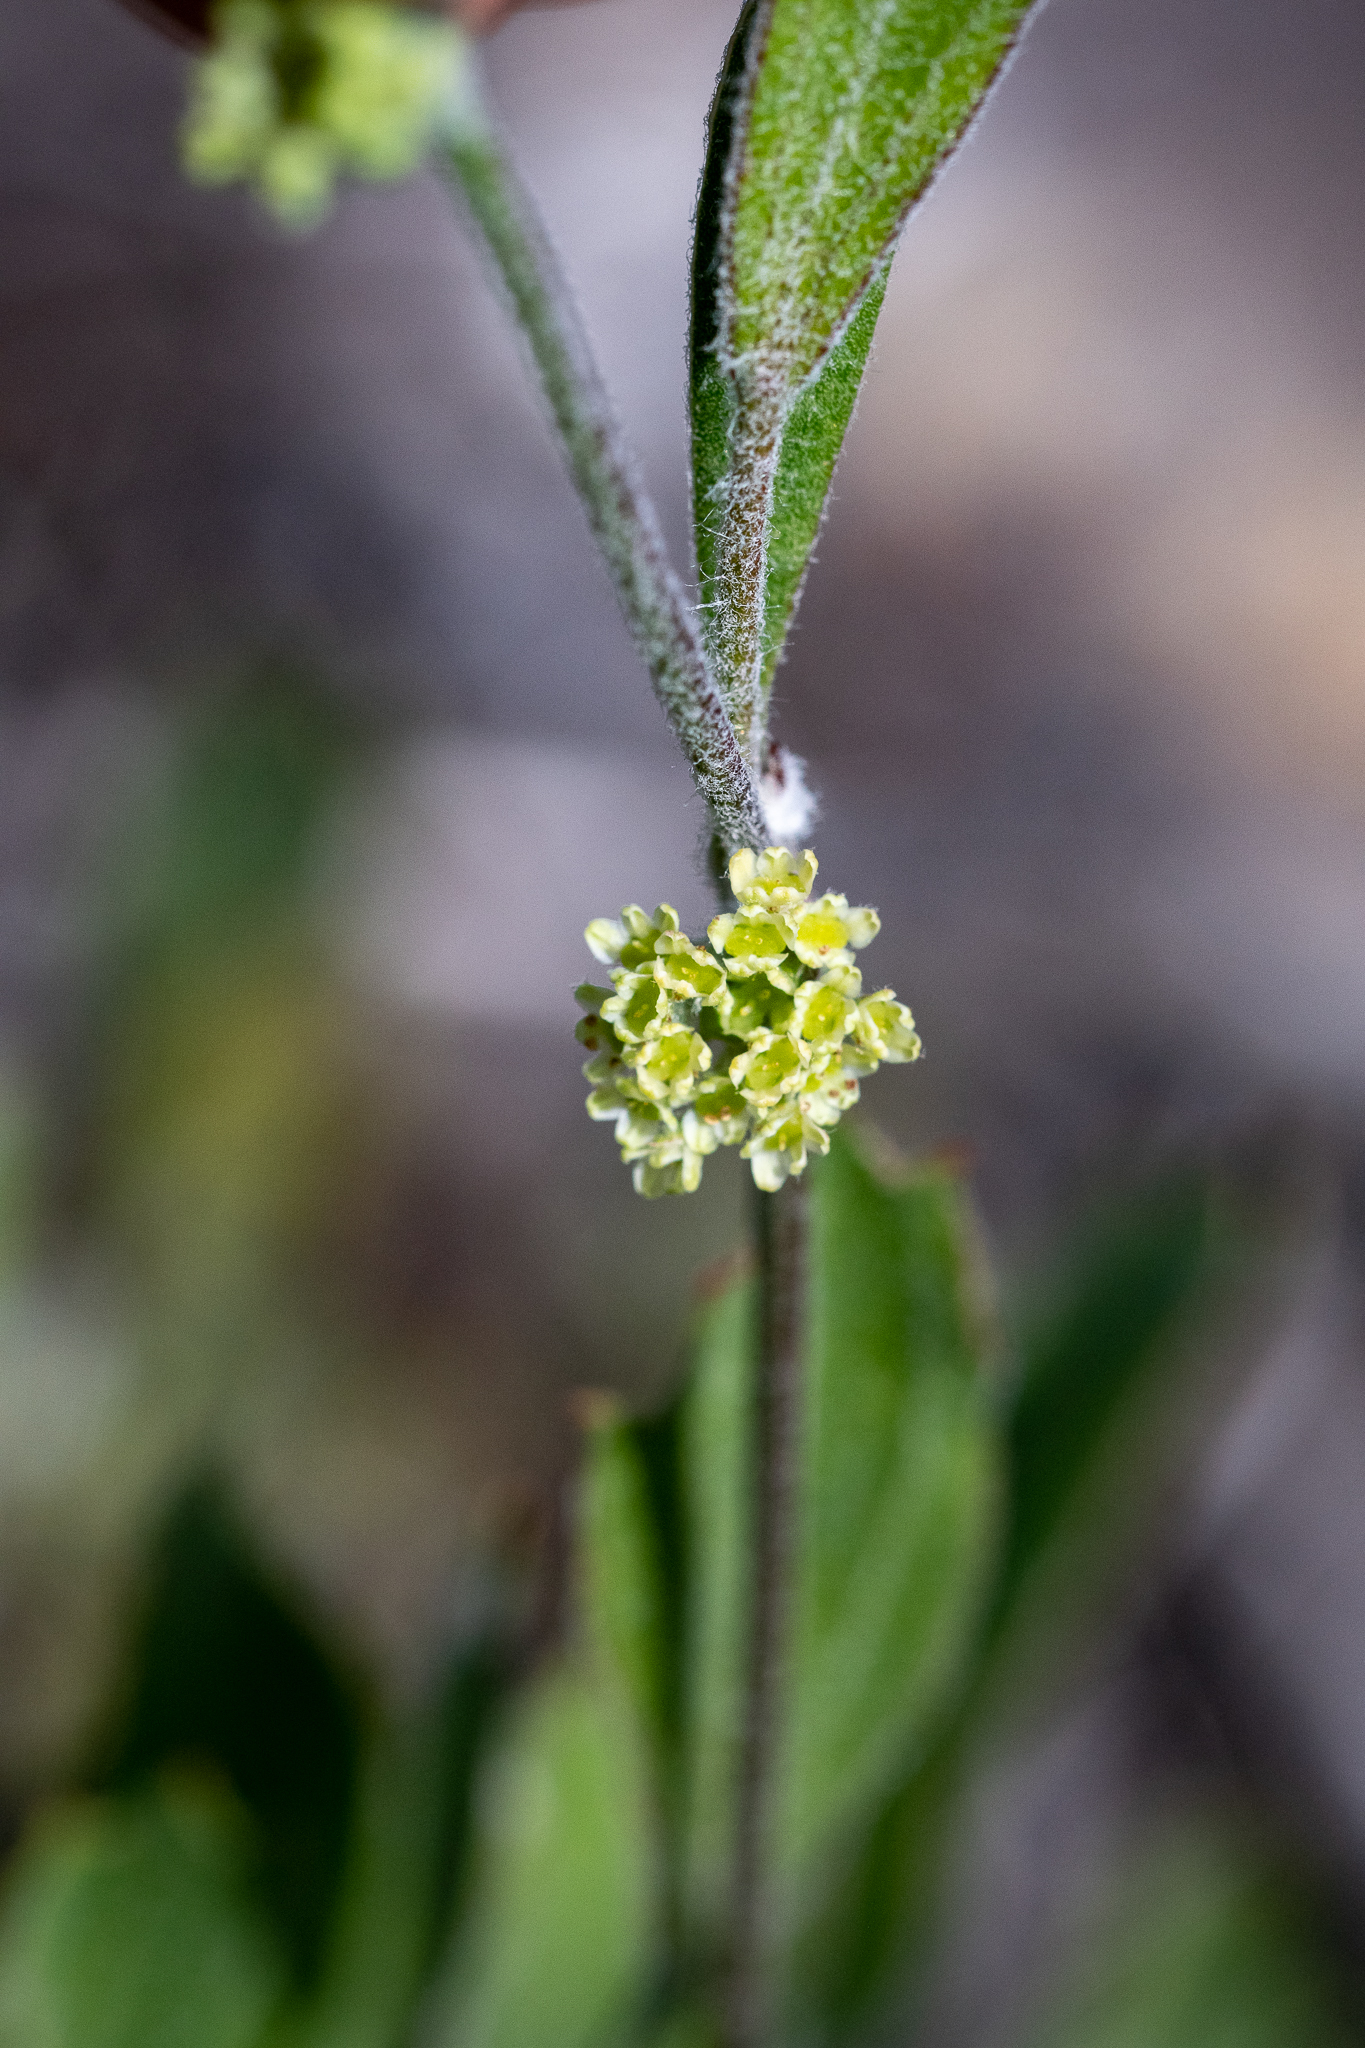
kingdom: Plantae
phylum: Tracheophyta
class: Magnoliopsida
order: Apiales
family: Apiaceae
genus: Centella
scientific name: Centella difformis
